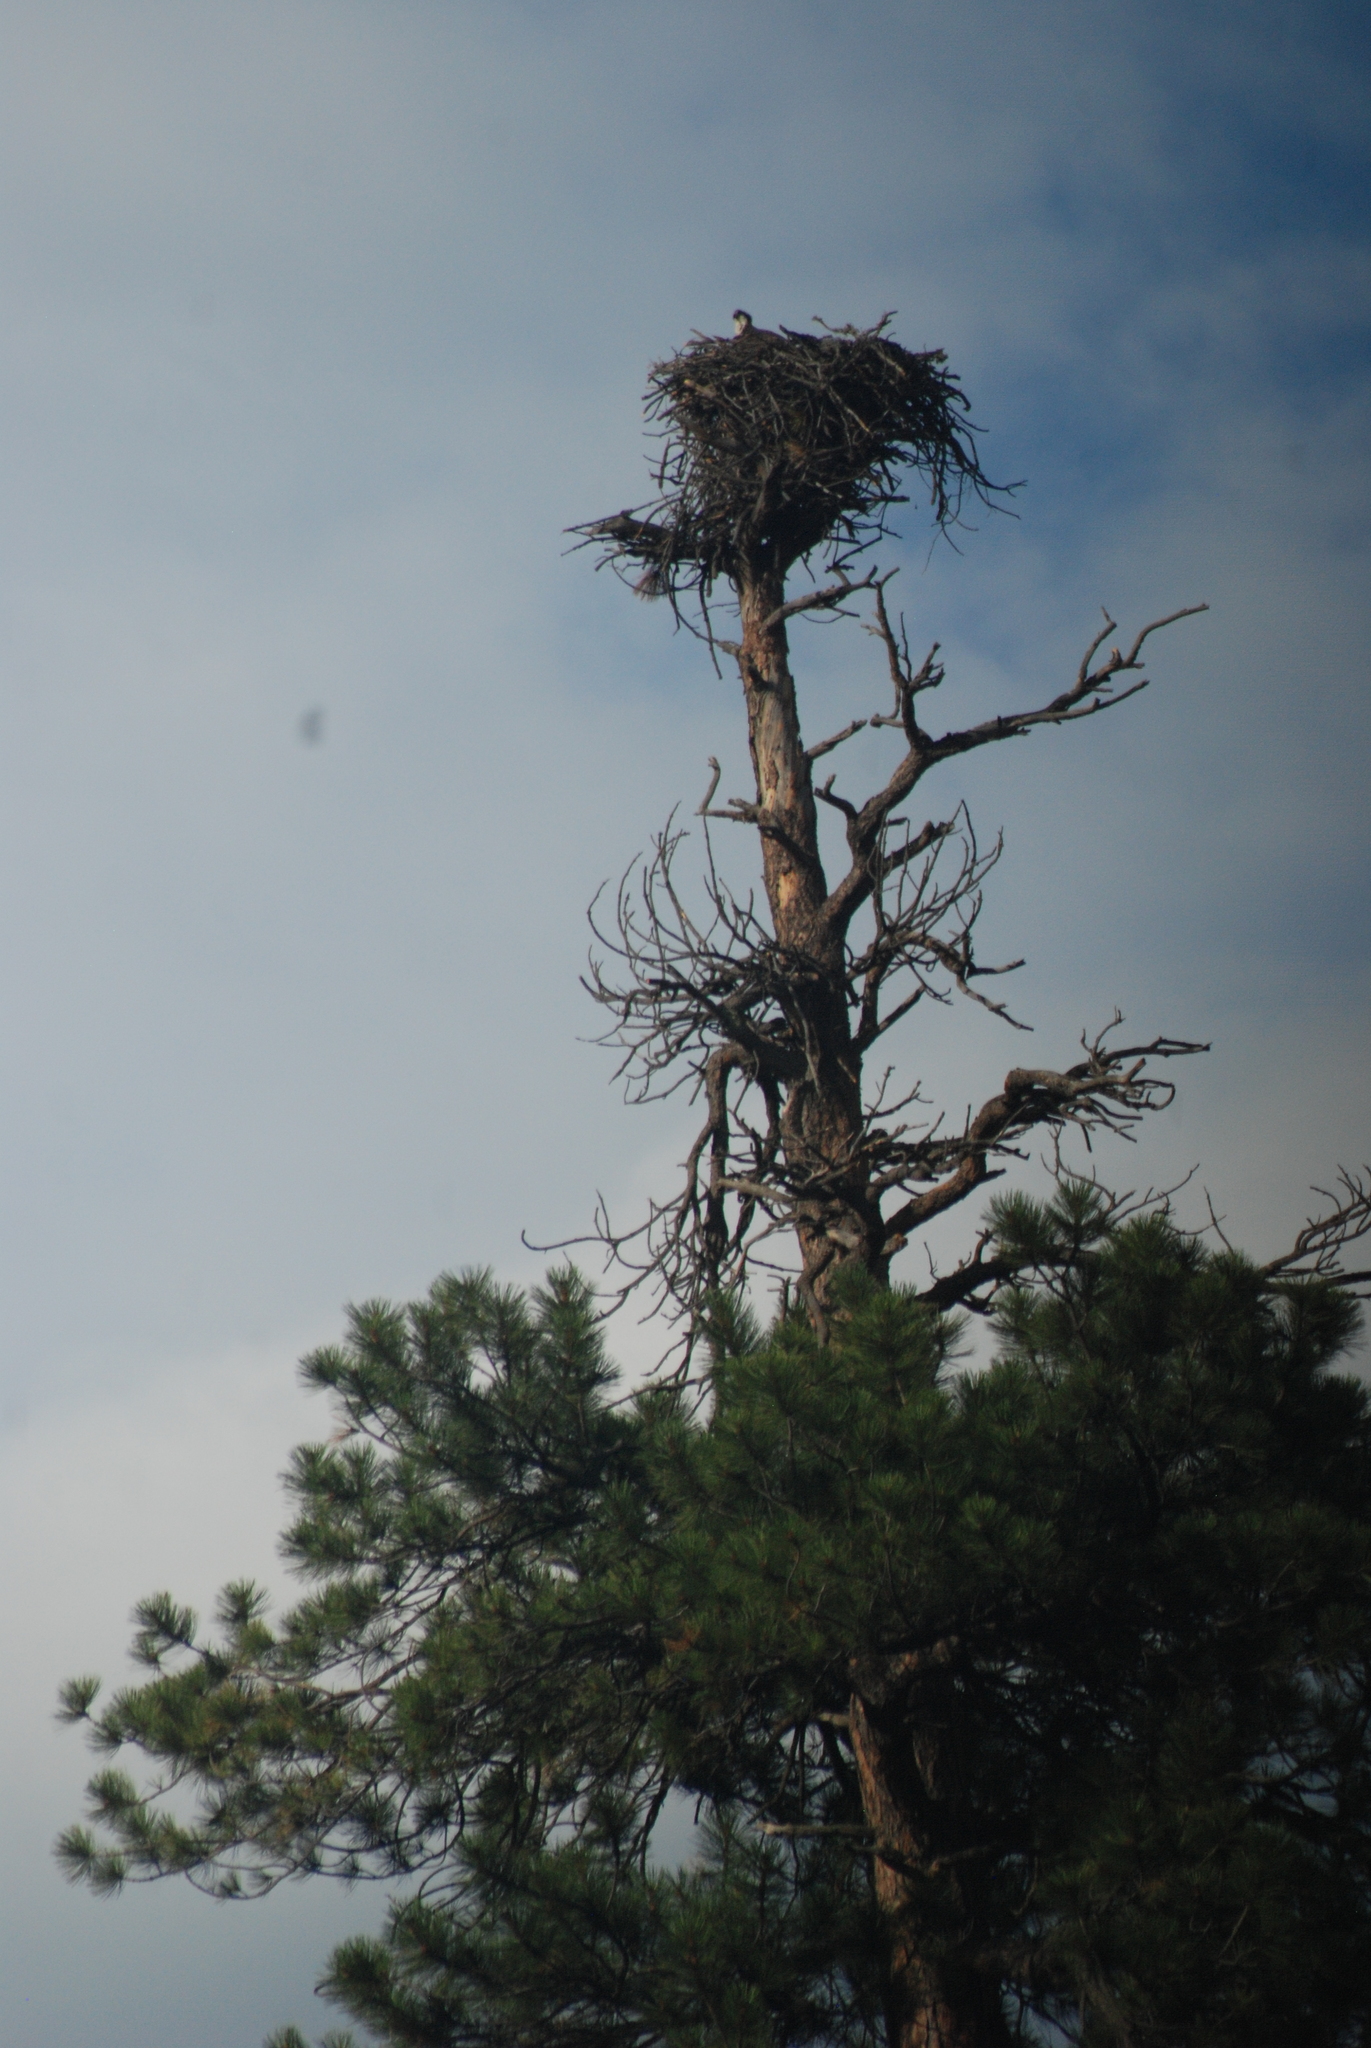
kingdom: Animalia
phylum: Chordata
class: Aves
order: Accipitriformes
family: Pandionidae
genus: Pandion
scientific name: Pandion haliaetus
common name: Osprey
